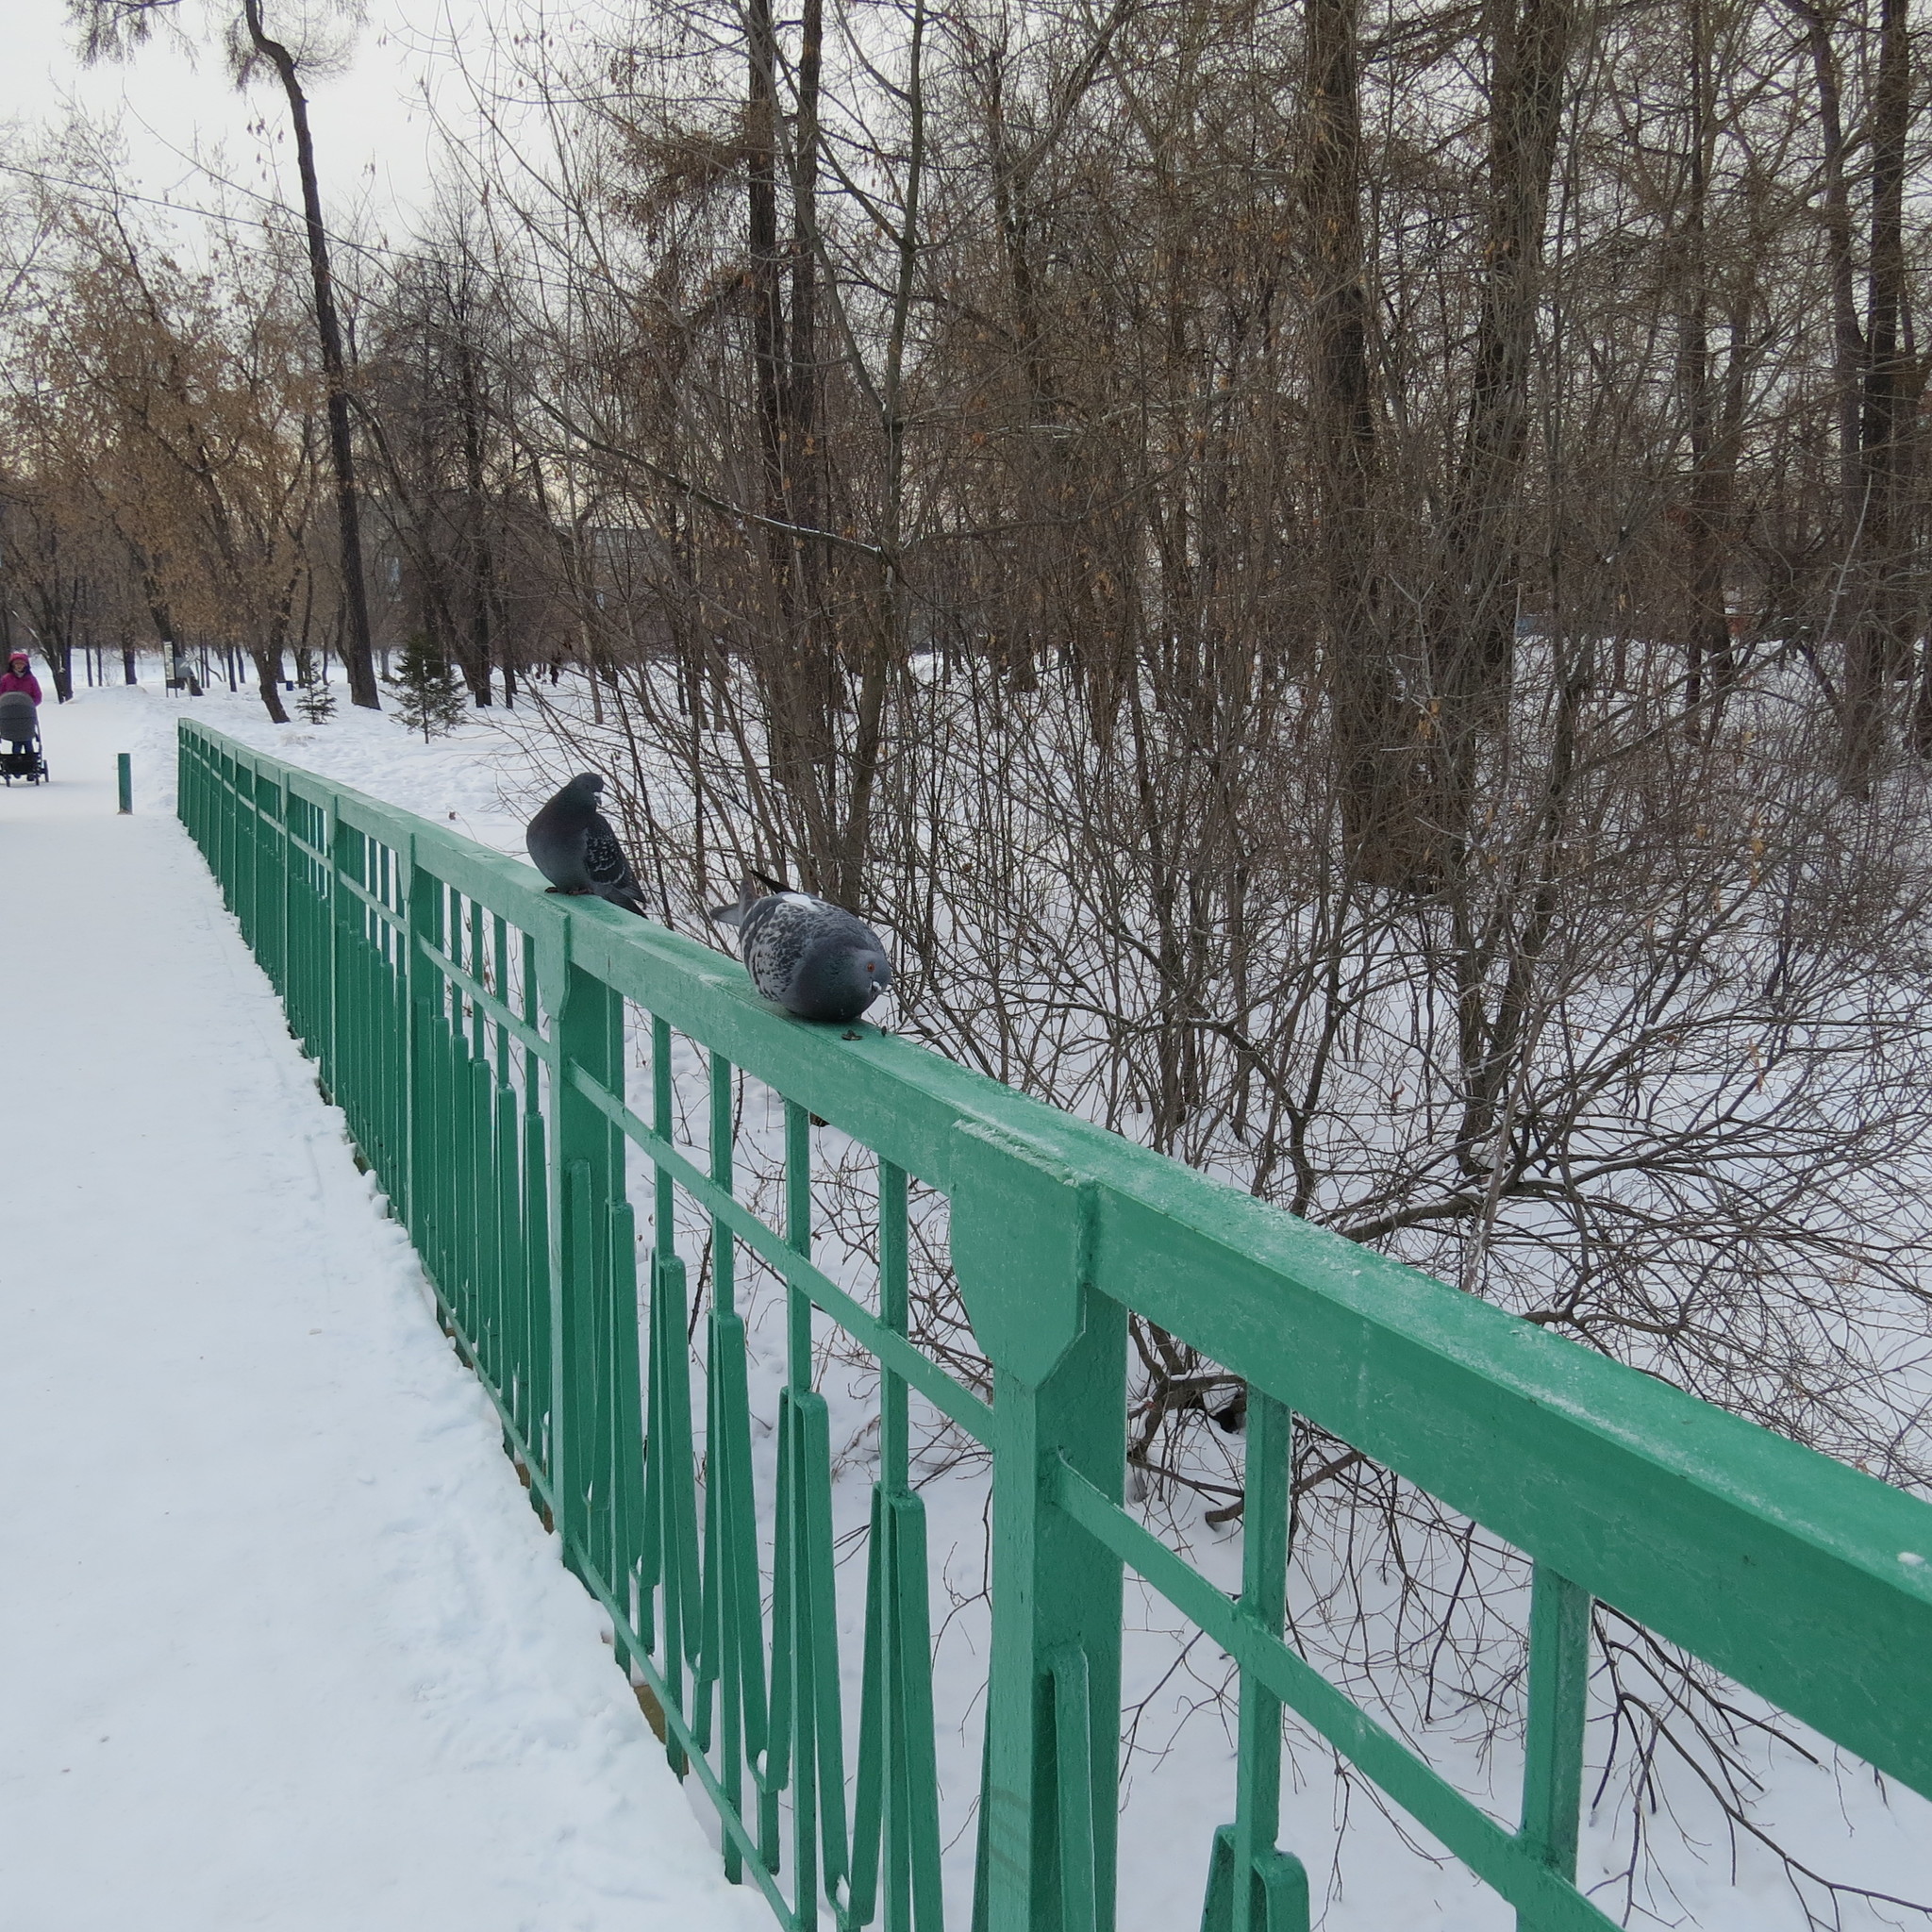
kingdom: Animalia
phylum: Chordata
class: Aves
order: Columbiformes
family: Columbidae
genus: Columba
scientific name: Columba livia
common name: Rock pigeon
